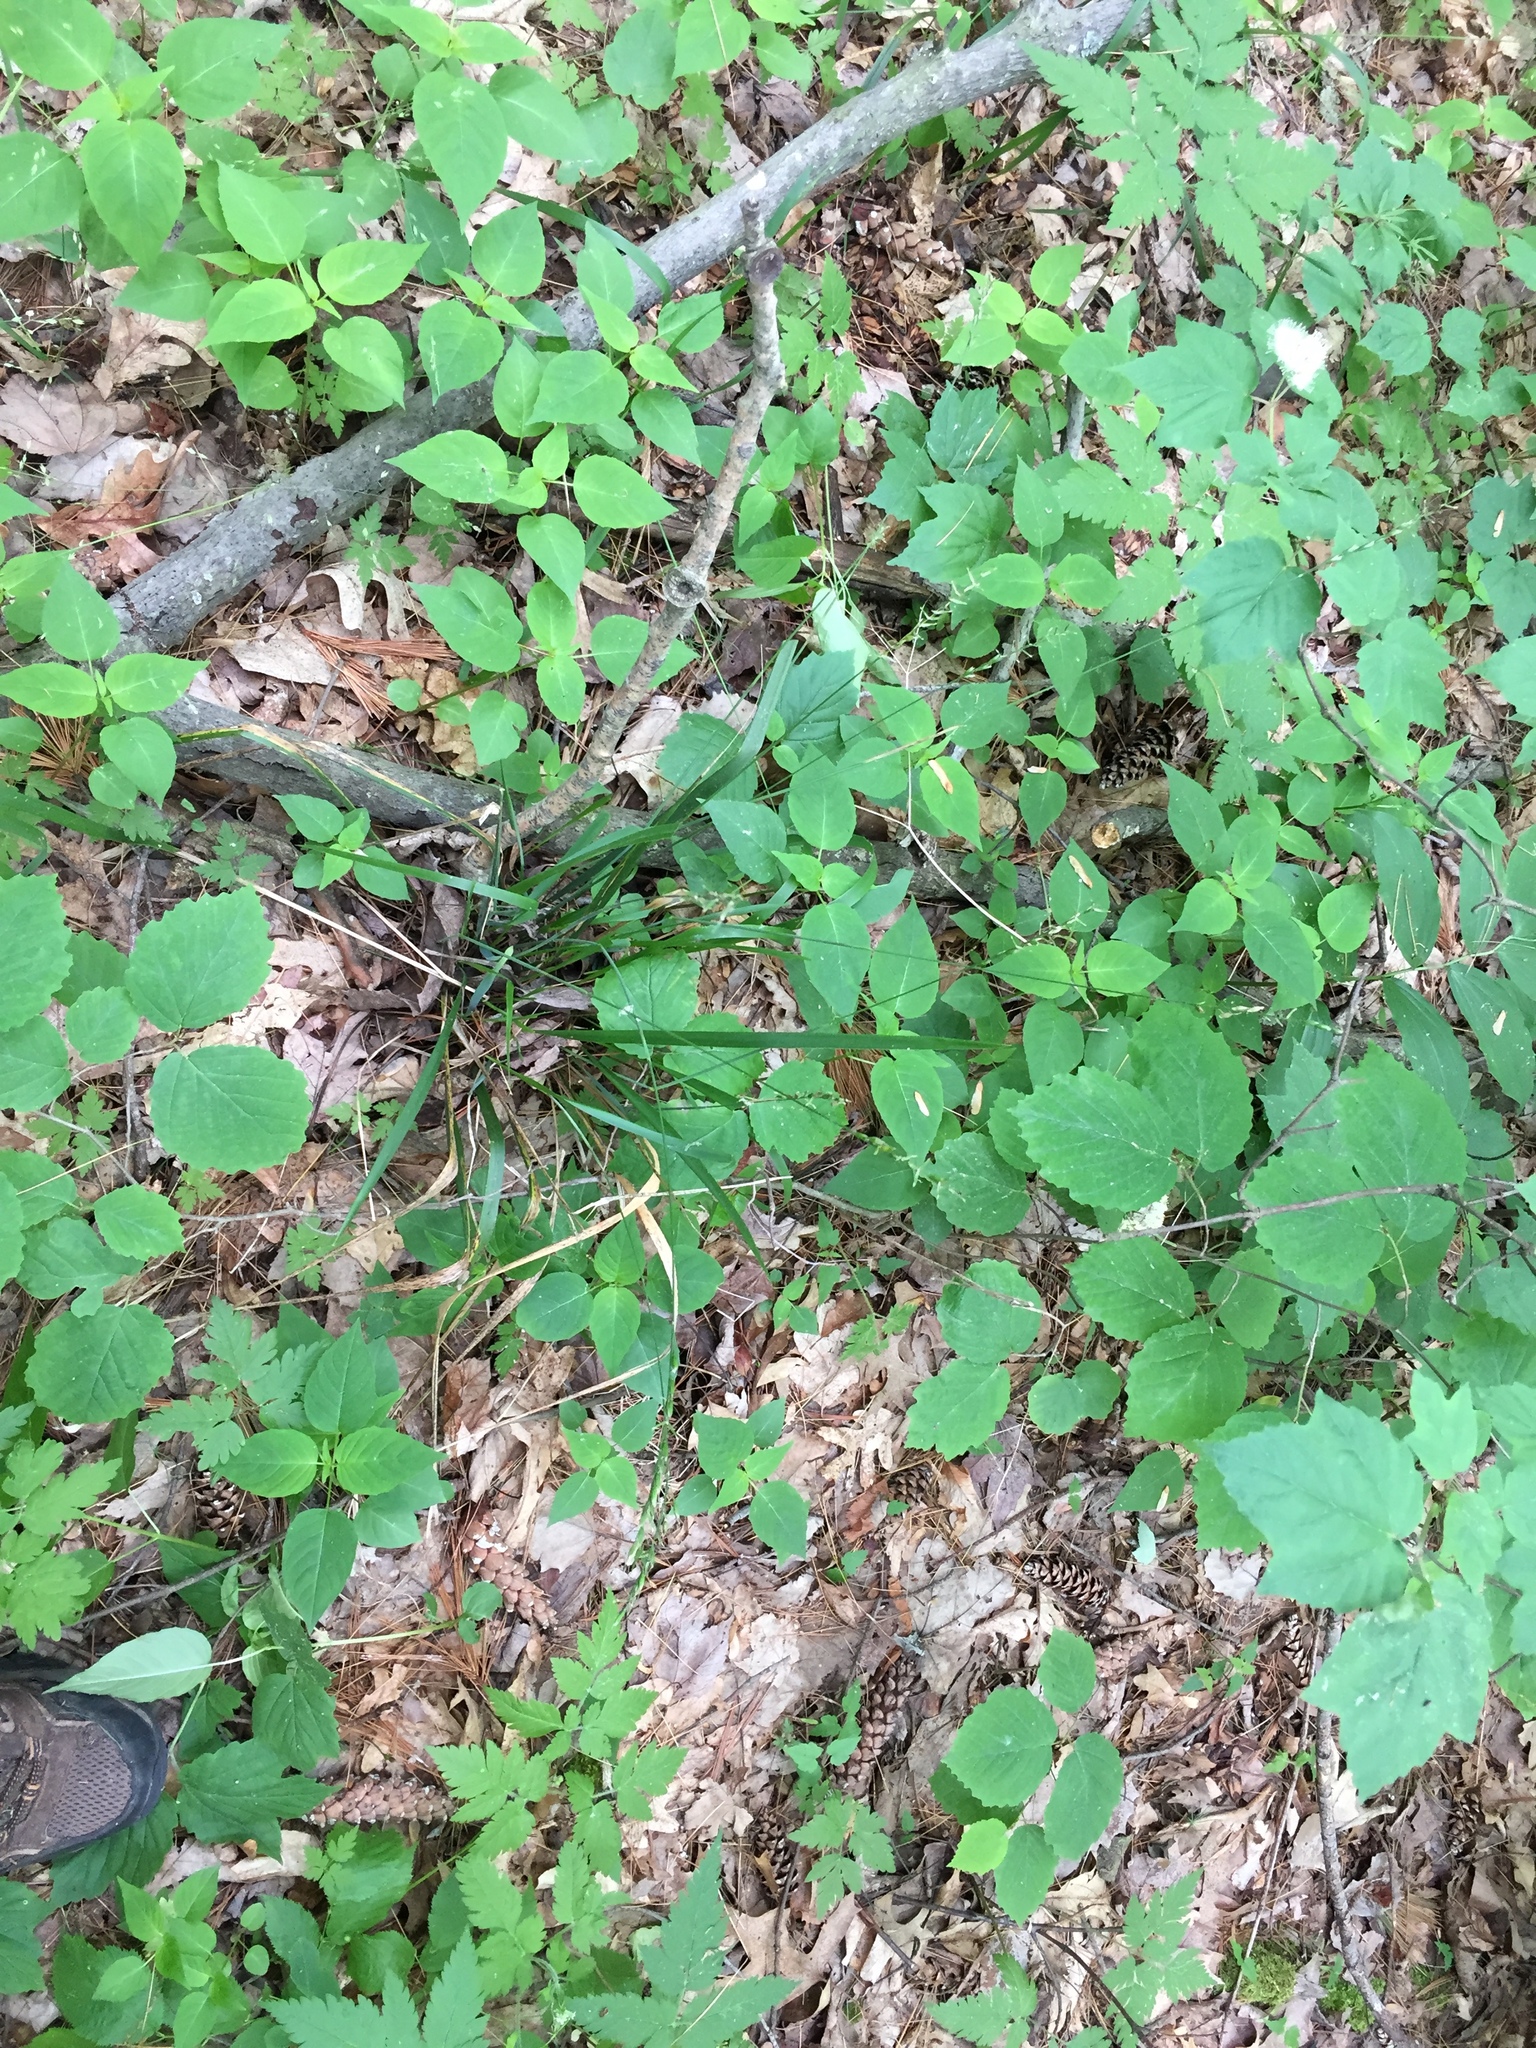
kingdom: Plantae
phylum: Tracheophyta
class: Liliopsida
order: Poales
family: Poaceae
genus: Oryzopsis
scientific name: Oryzopsis asperifolia
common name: Rough-leaved mountain rice
